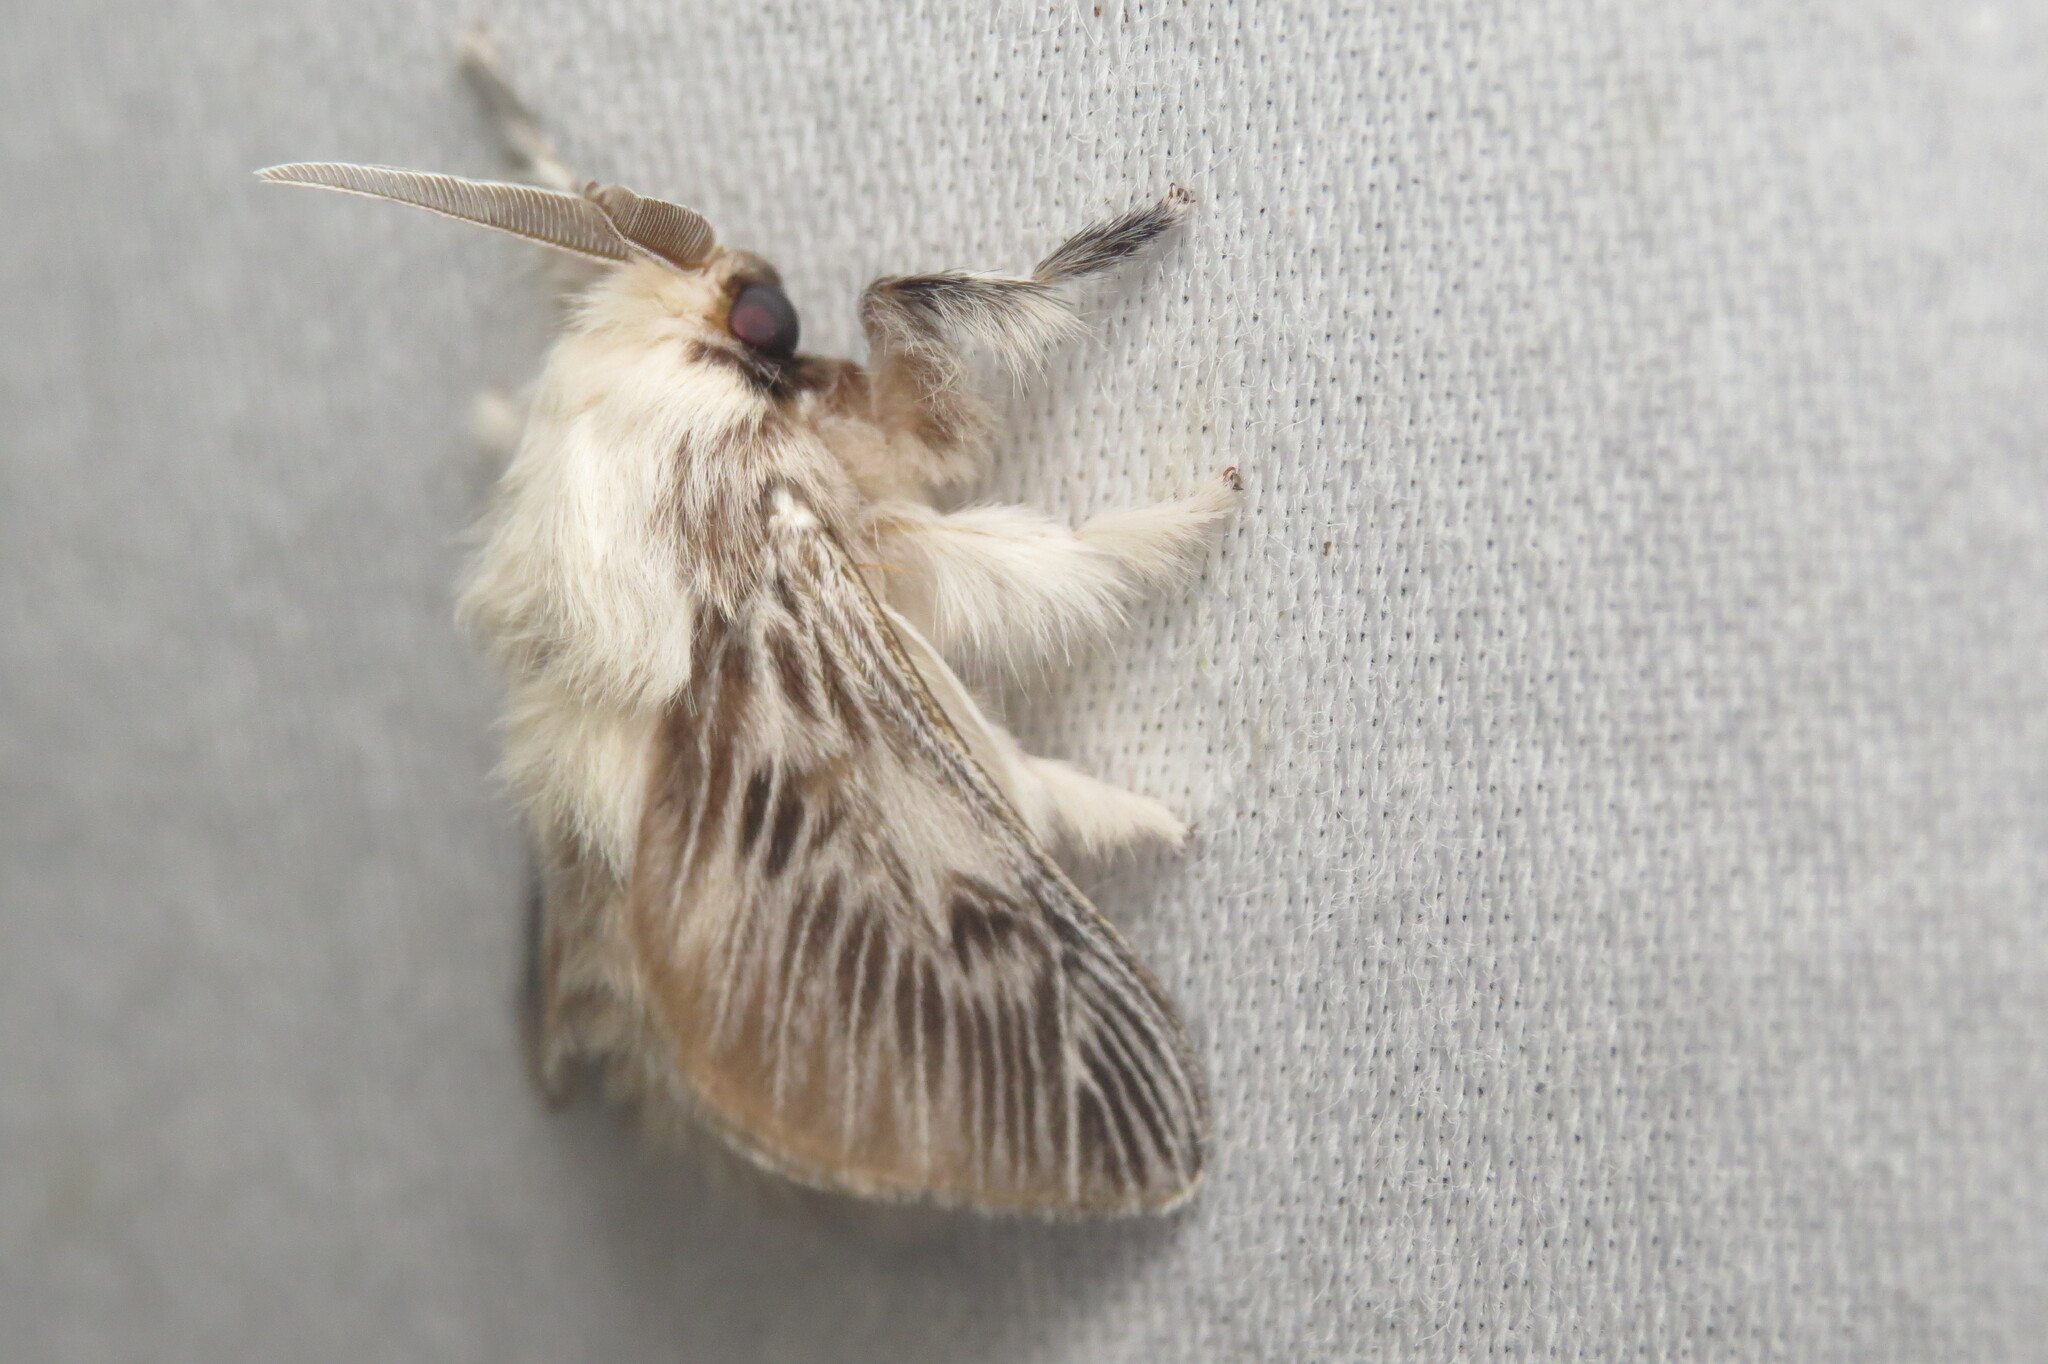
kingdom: Animalia
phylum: Arthropoda
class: Insecta
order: Lepidoptera
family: Megalopygidae
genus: Megalopyge
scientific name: Megalopyge krugii
